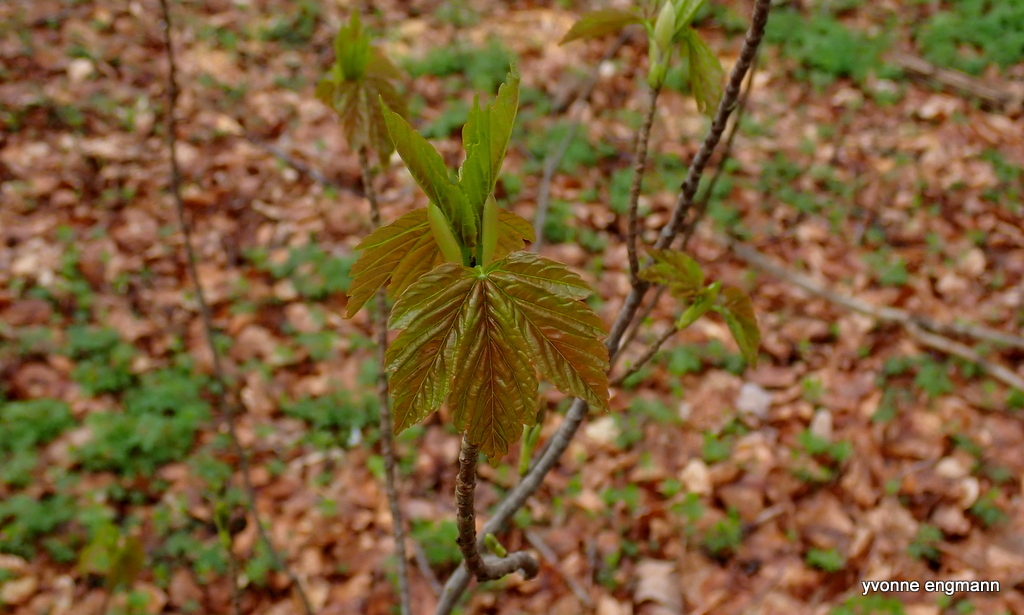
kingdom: Plantae
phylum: Tracheophyta
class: Magnoliopsida
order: Sapindales
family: Sapindaceae
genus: Acer
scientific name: Acer pseudoplatanus
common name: Sycamore
